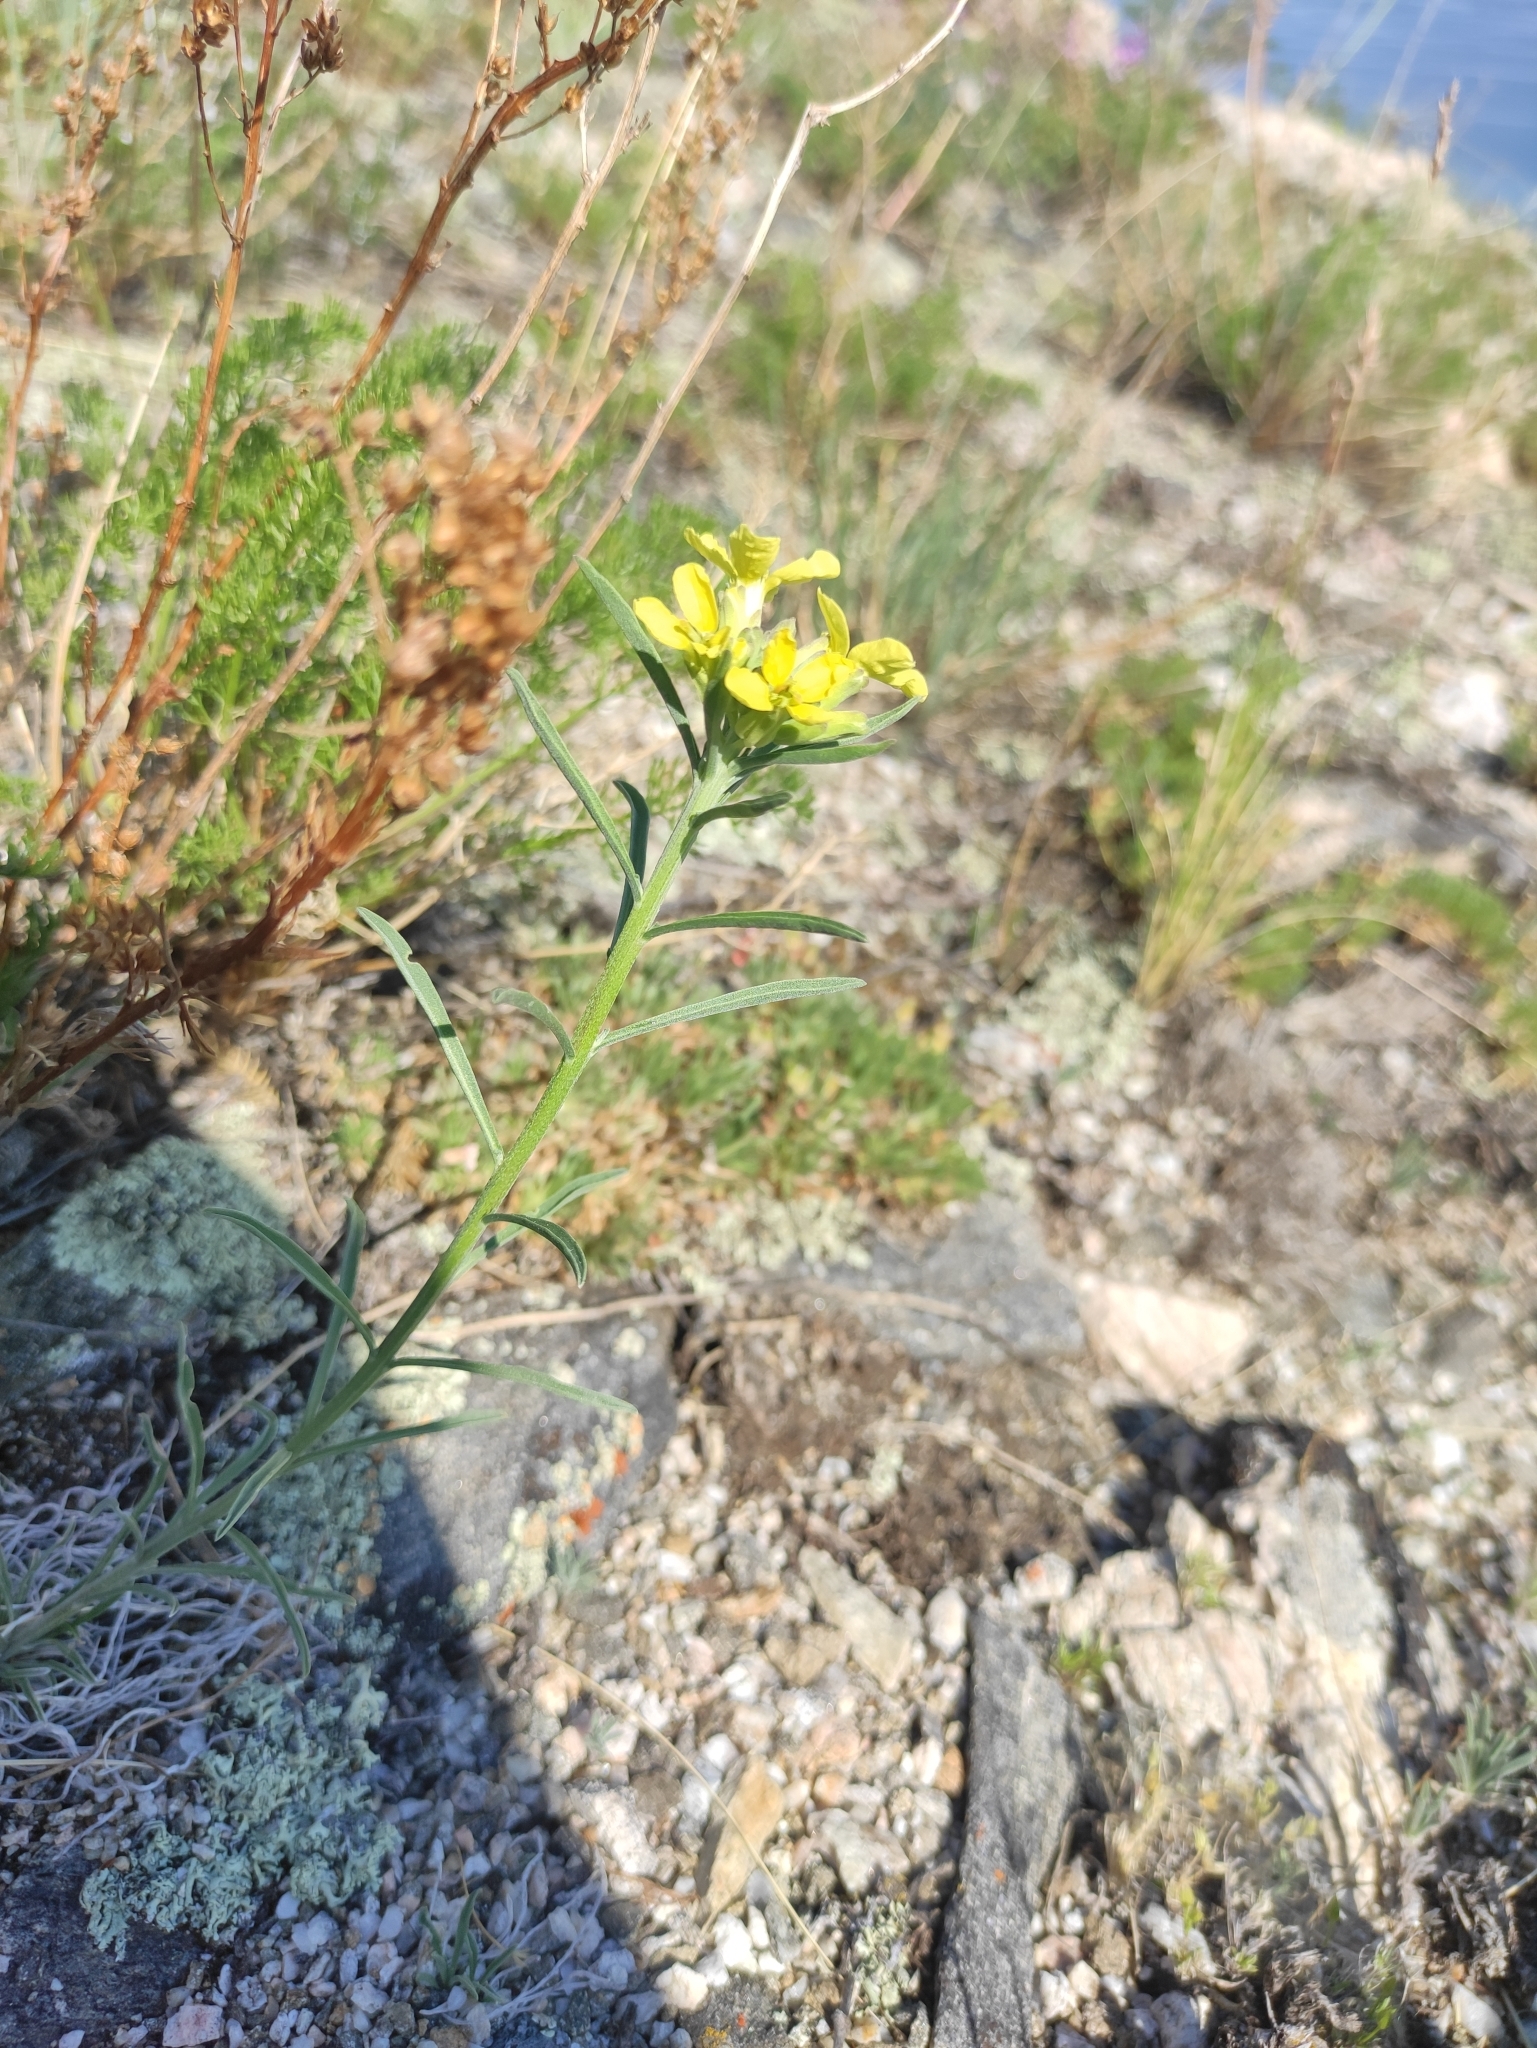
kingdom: Plantae
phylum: Tracheophyta
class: Magnoliopsida
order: Brassicales
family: Brassicaceae
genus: Erysimum
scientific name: Erysimum flavum
